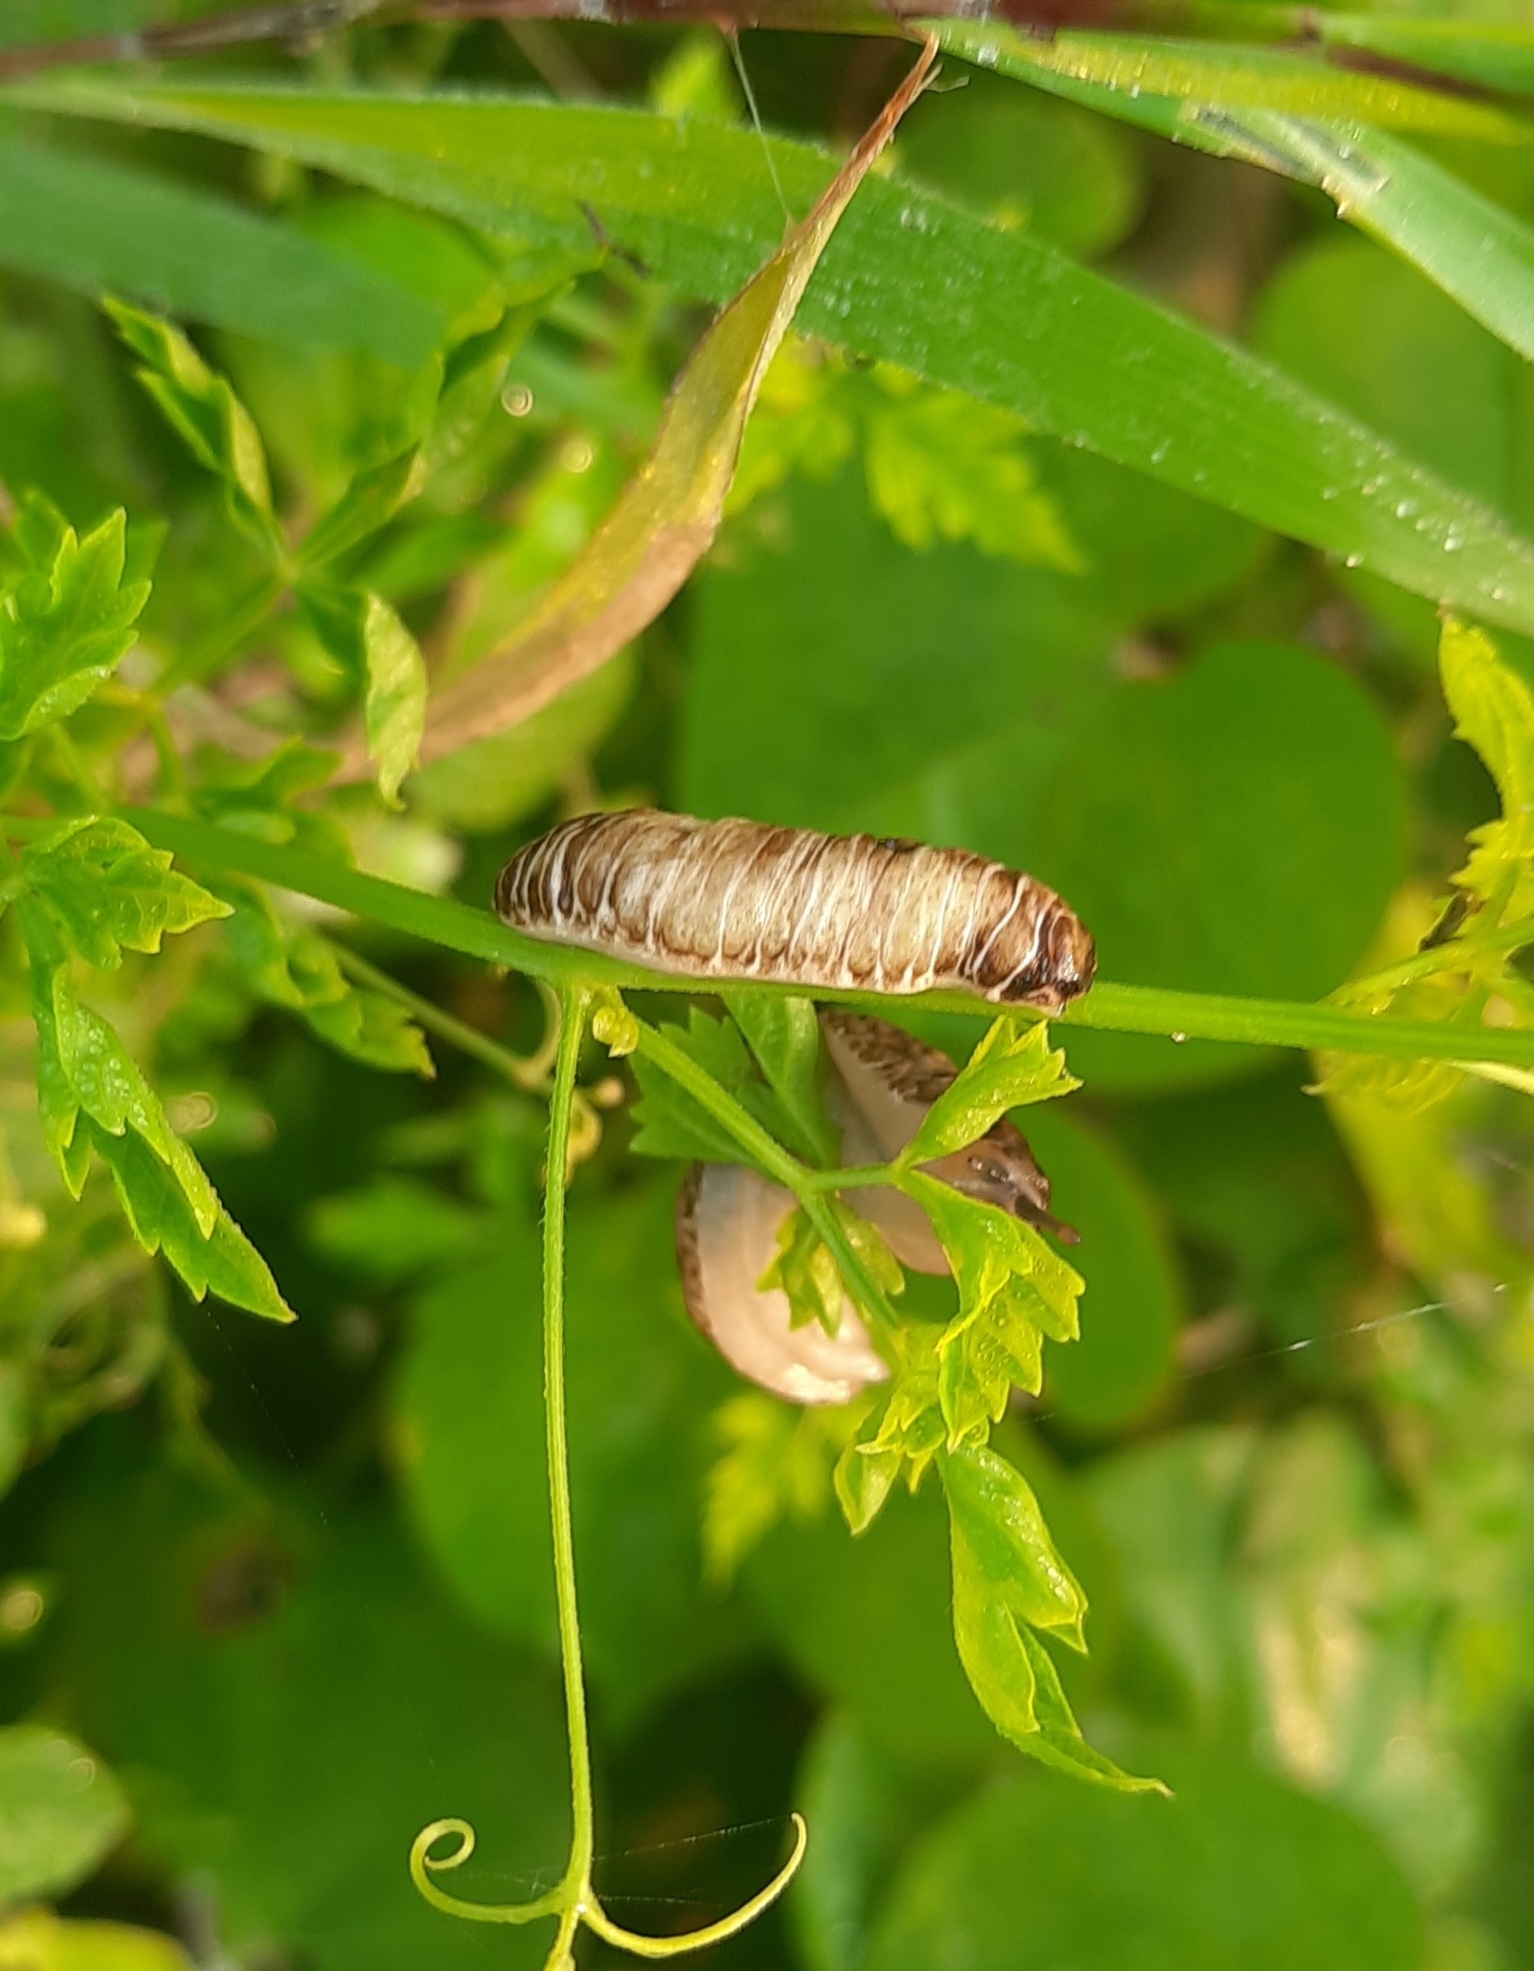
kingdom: Animalia
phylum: Mollusca
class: Gastropoda
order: Systellommatophora
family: Veronicellidae
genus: Laevicaulis
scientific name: Laevicaulis haroldi
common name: Caterpillar slug
